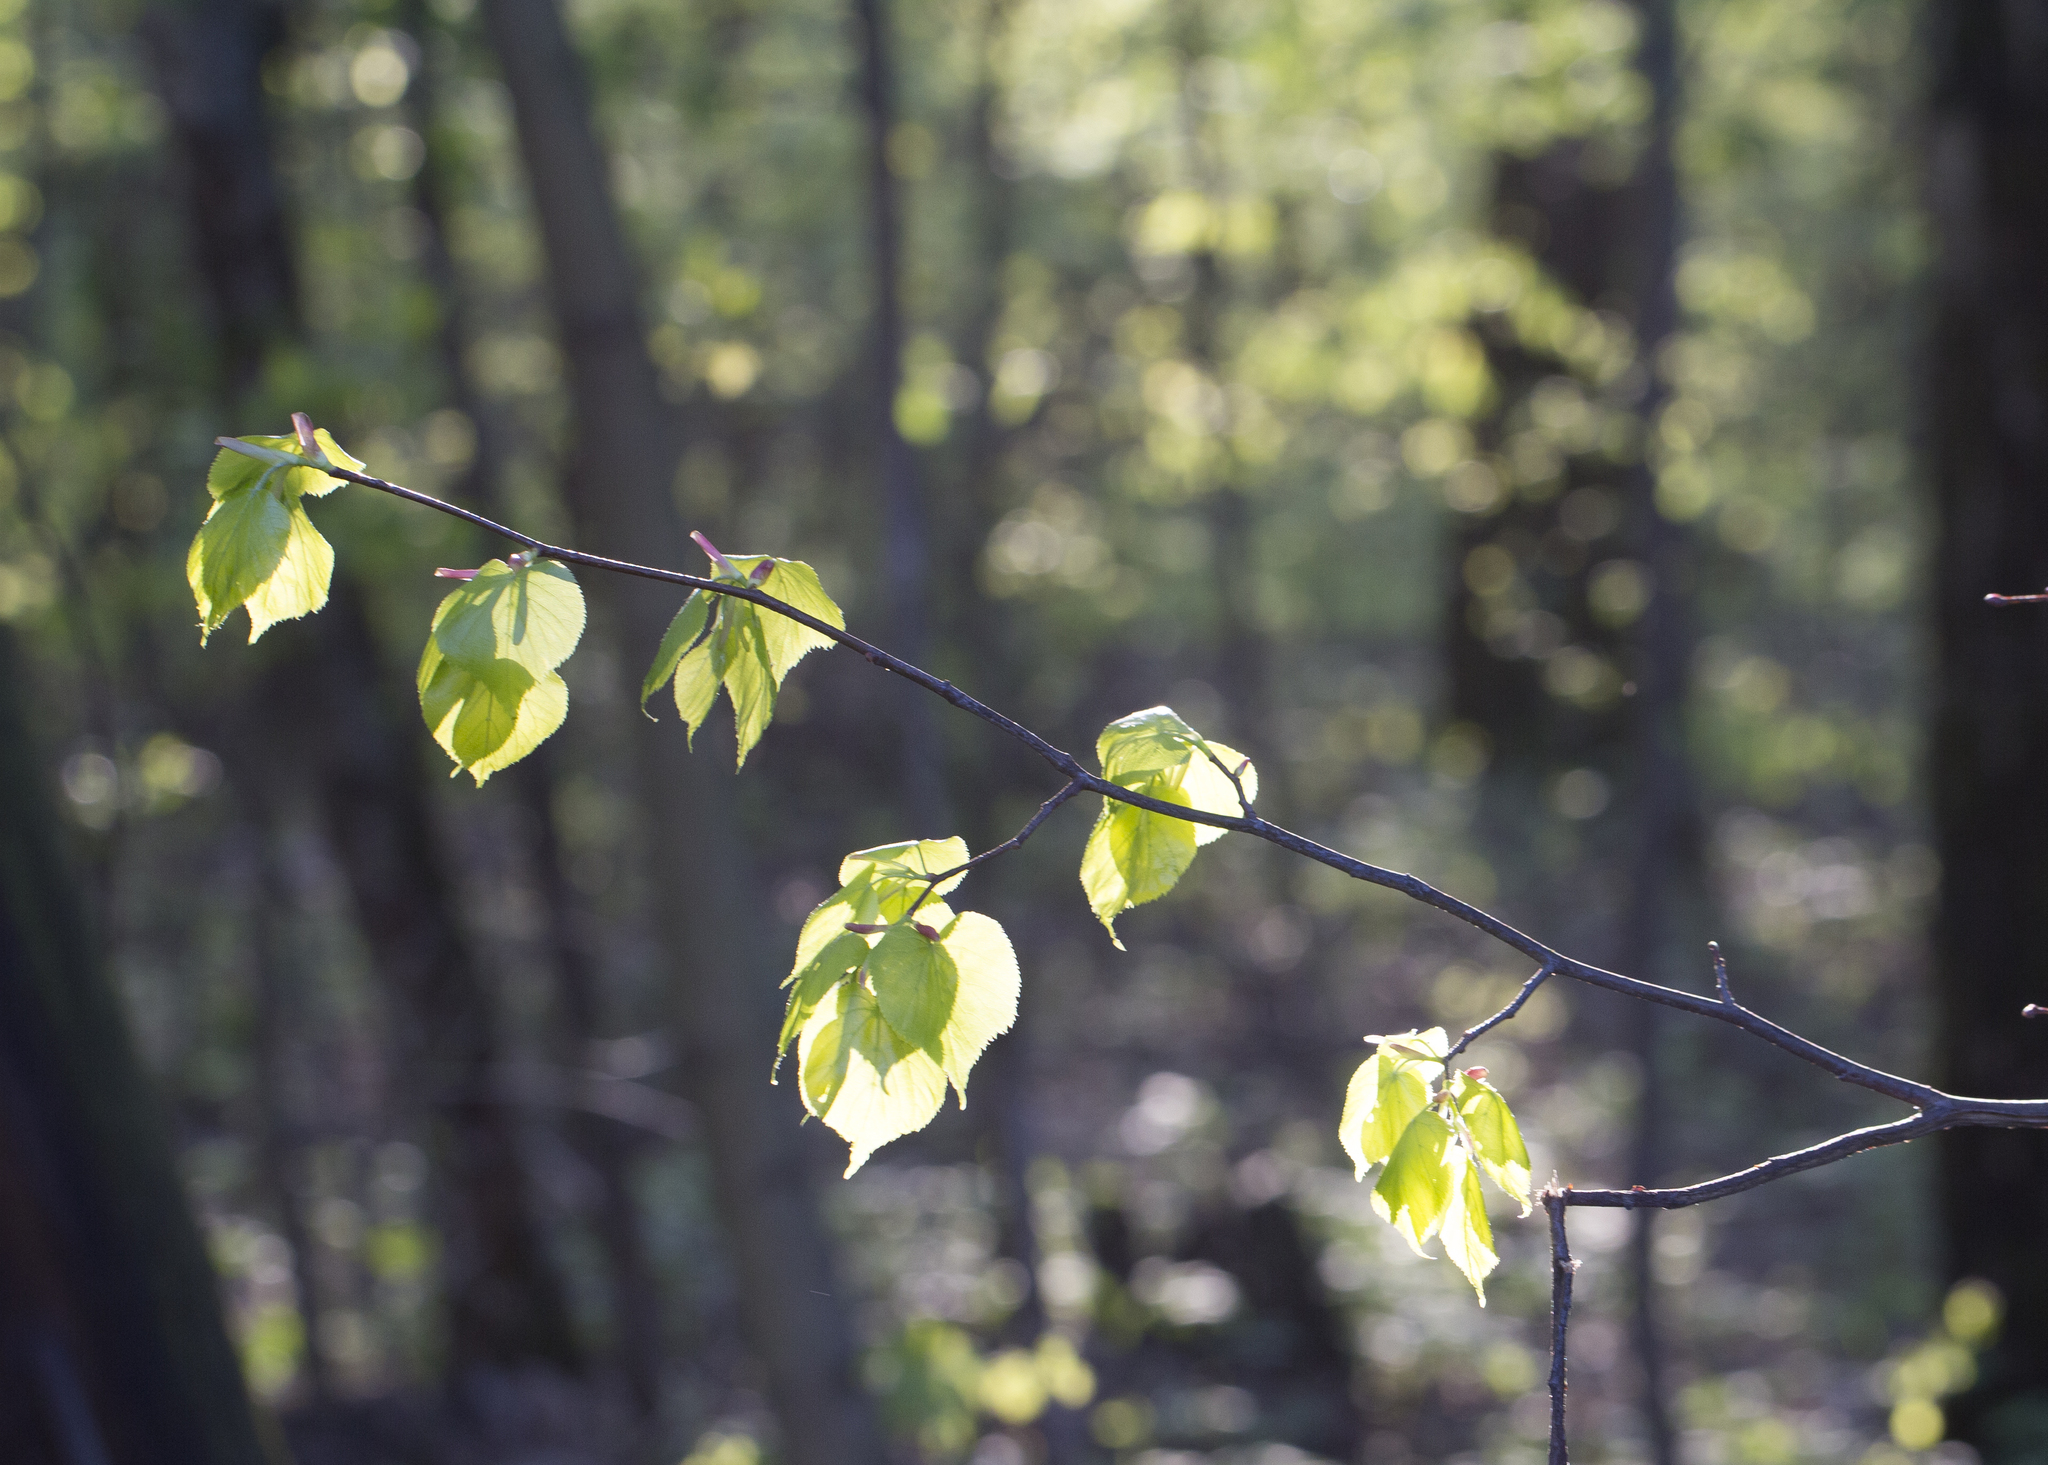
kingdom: Plantae
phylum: Tracheophyta
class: Magnoliopsida
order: Malvales
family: Malvaceae
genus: Tilia
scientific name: Tilia cordata
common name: Small-leaved lime
